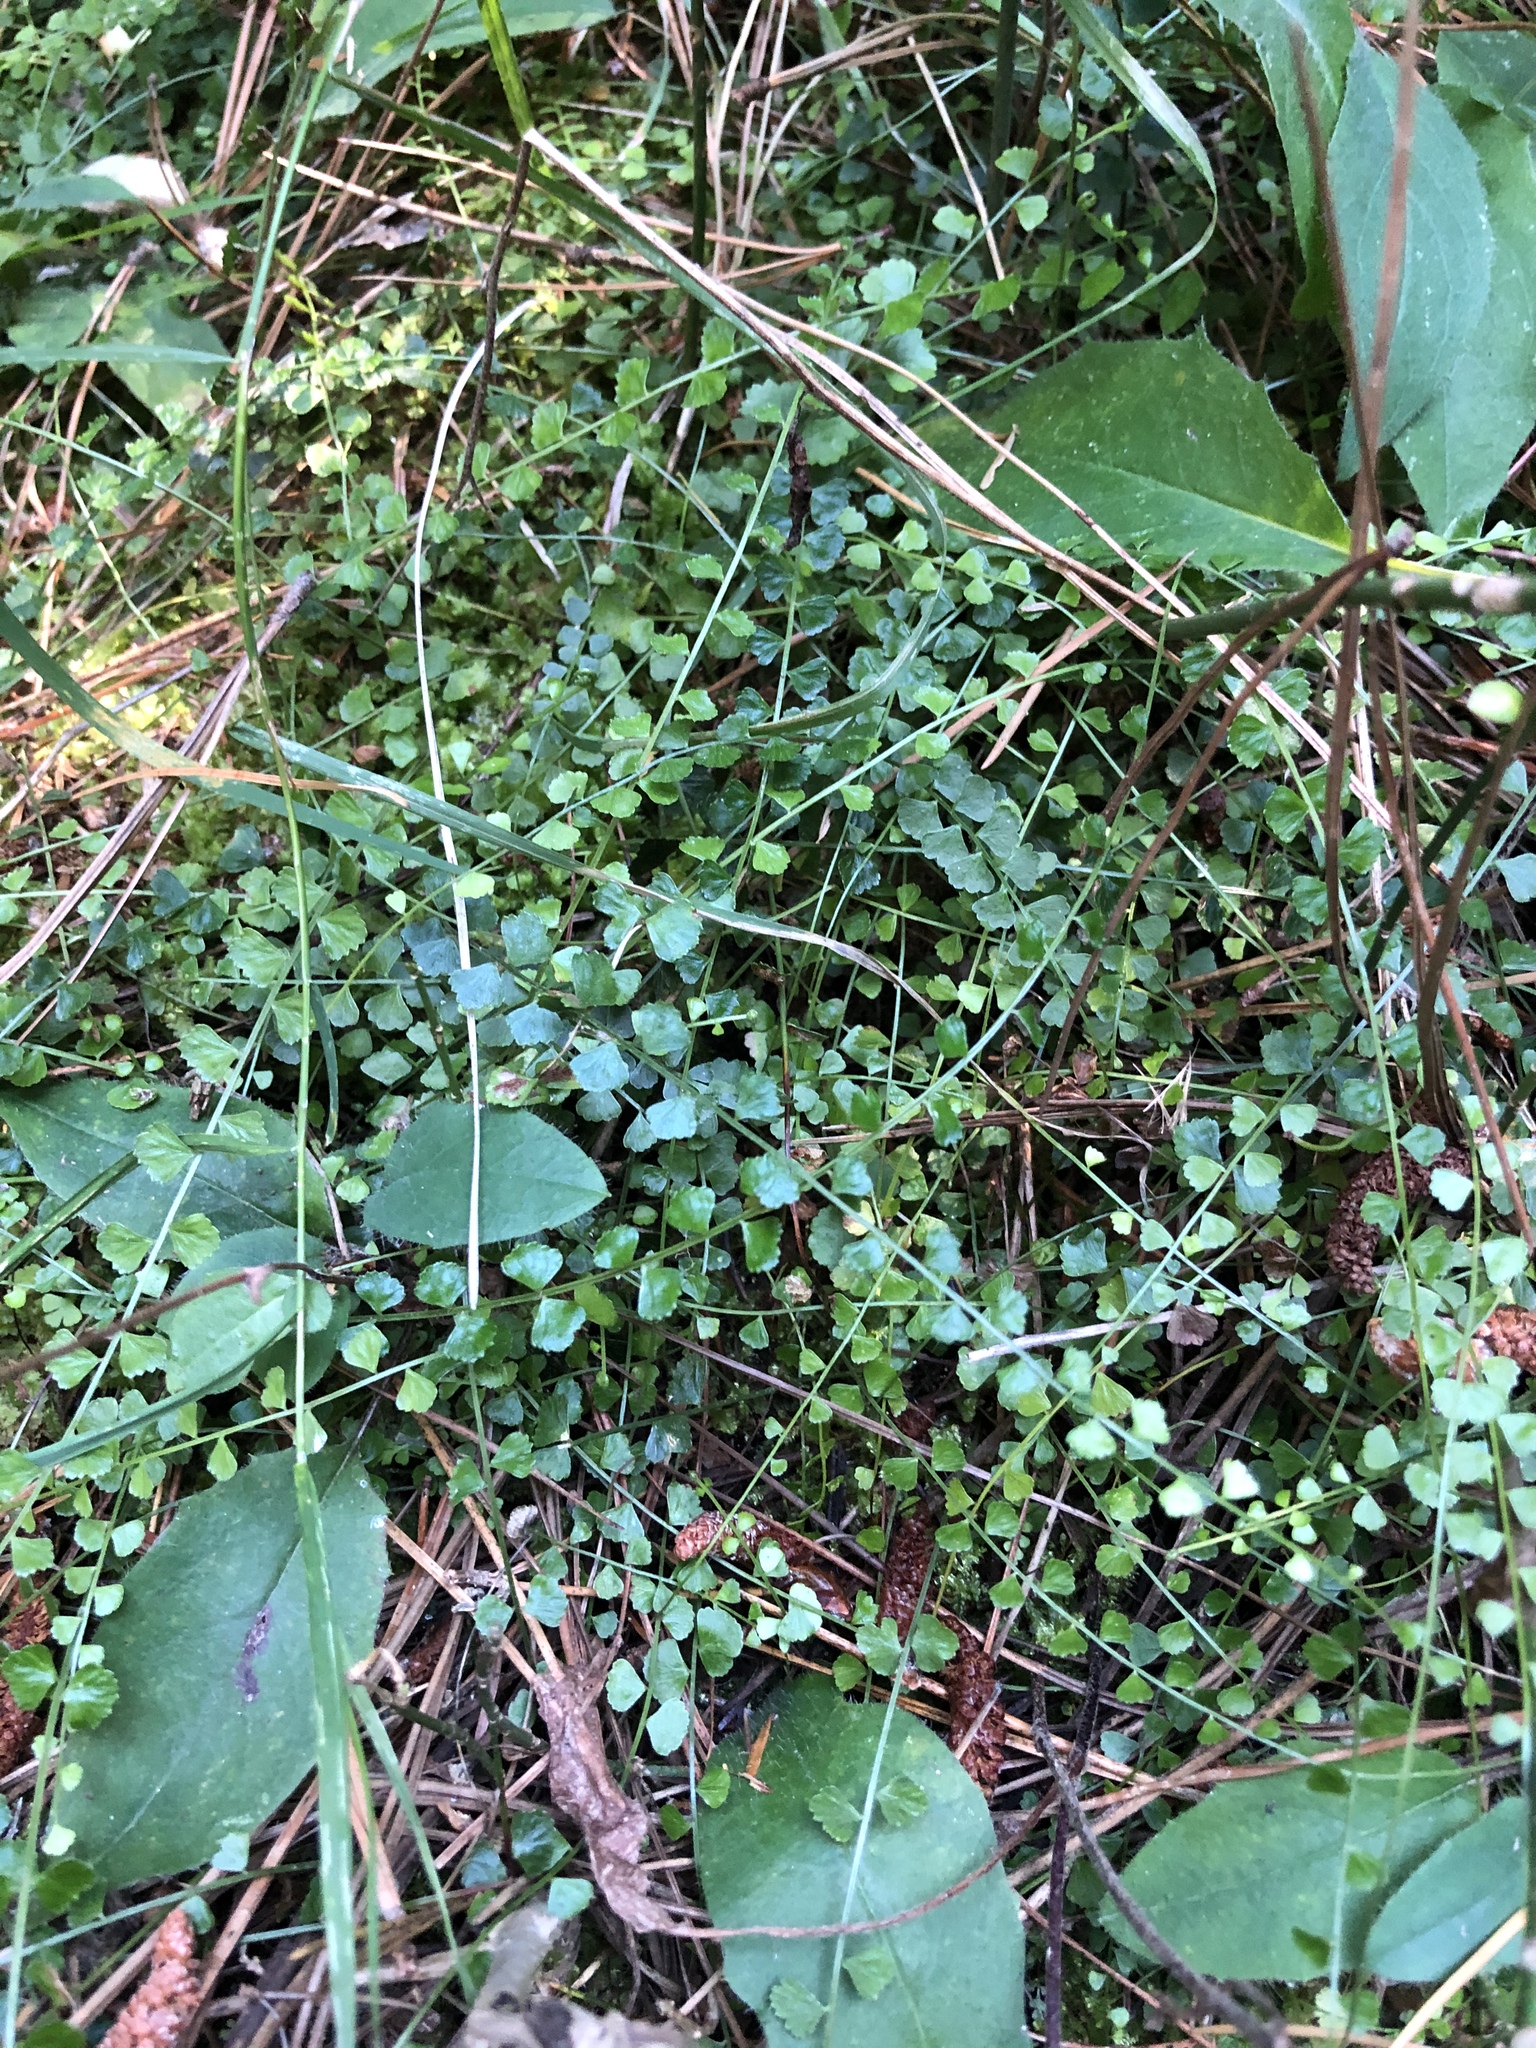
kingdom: Plantae
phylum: Tracheophyta
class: Polypodiopsida
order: Polypodiales
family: Aspleniaceae
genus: Asplenium
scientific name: Asplenium flabellifolium
